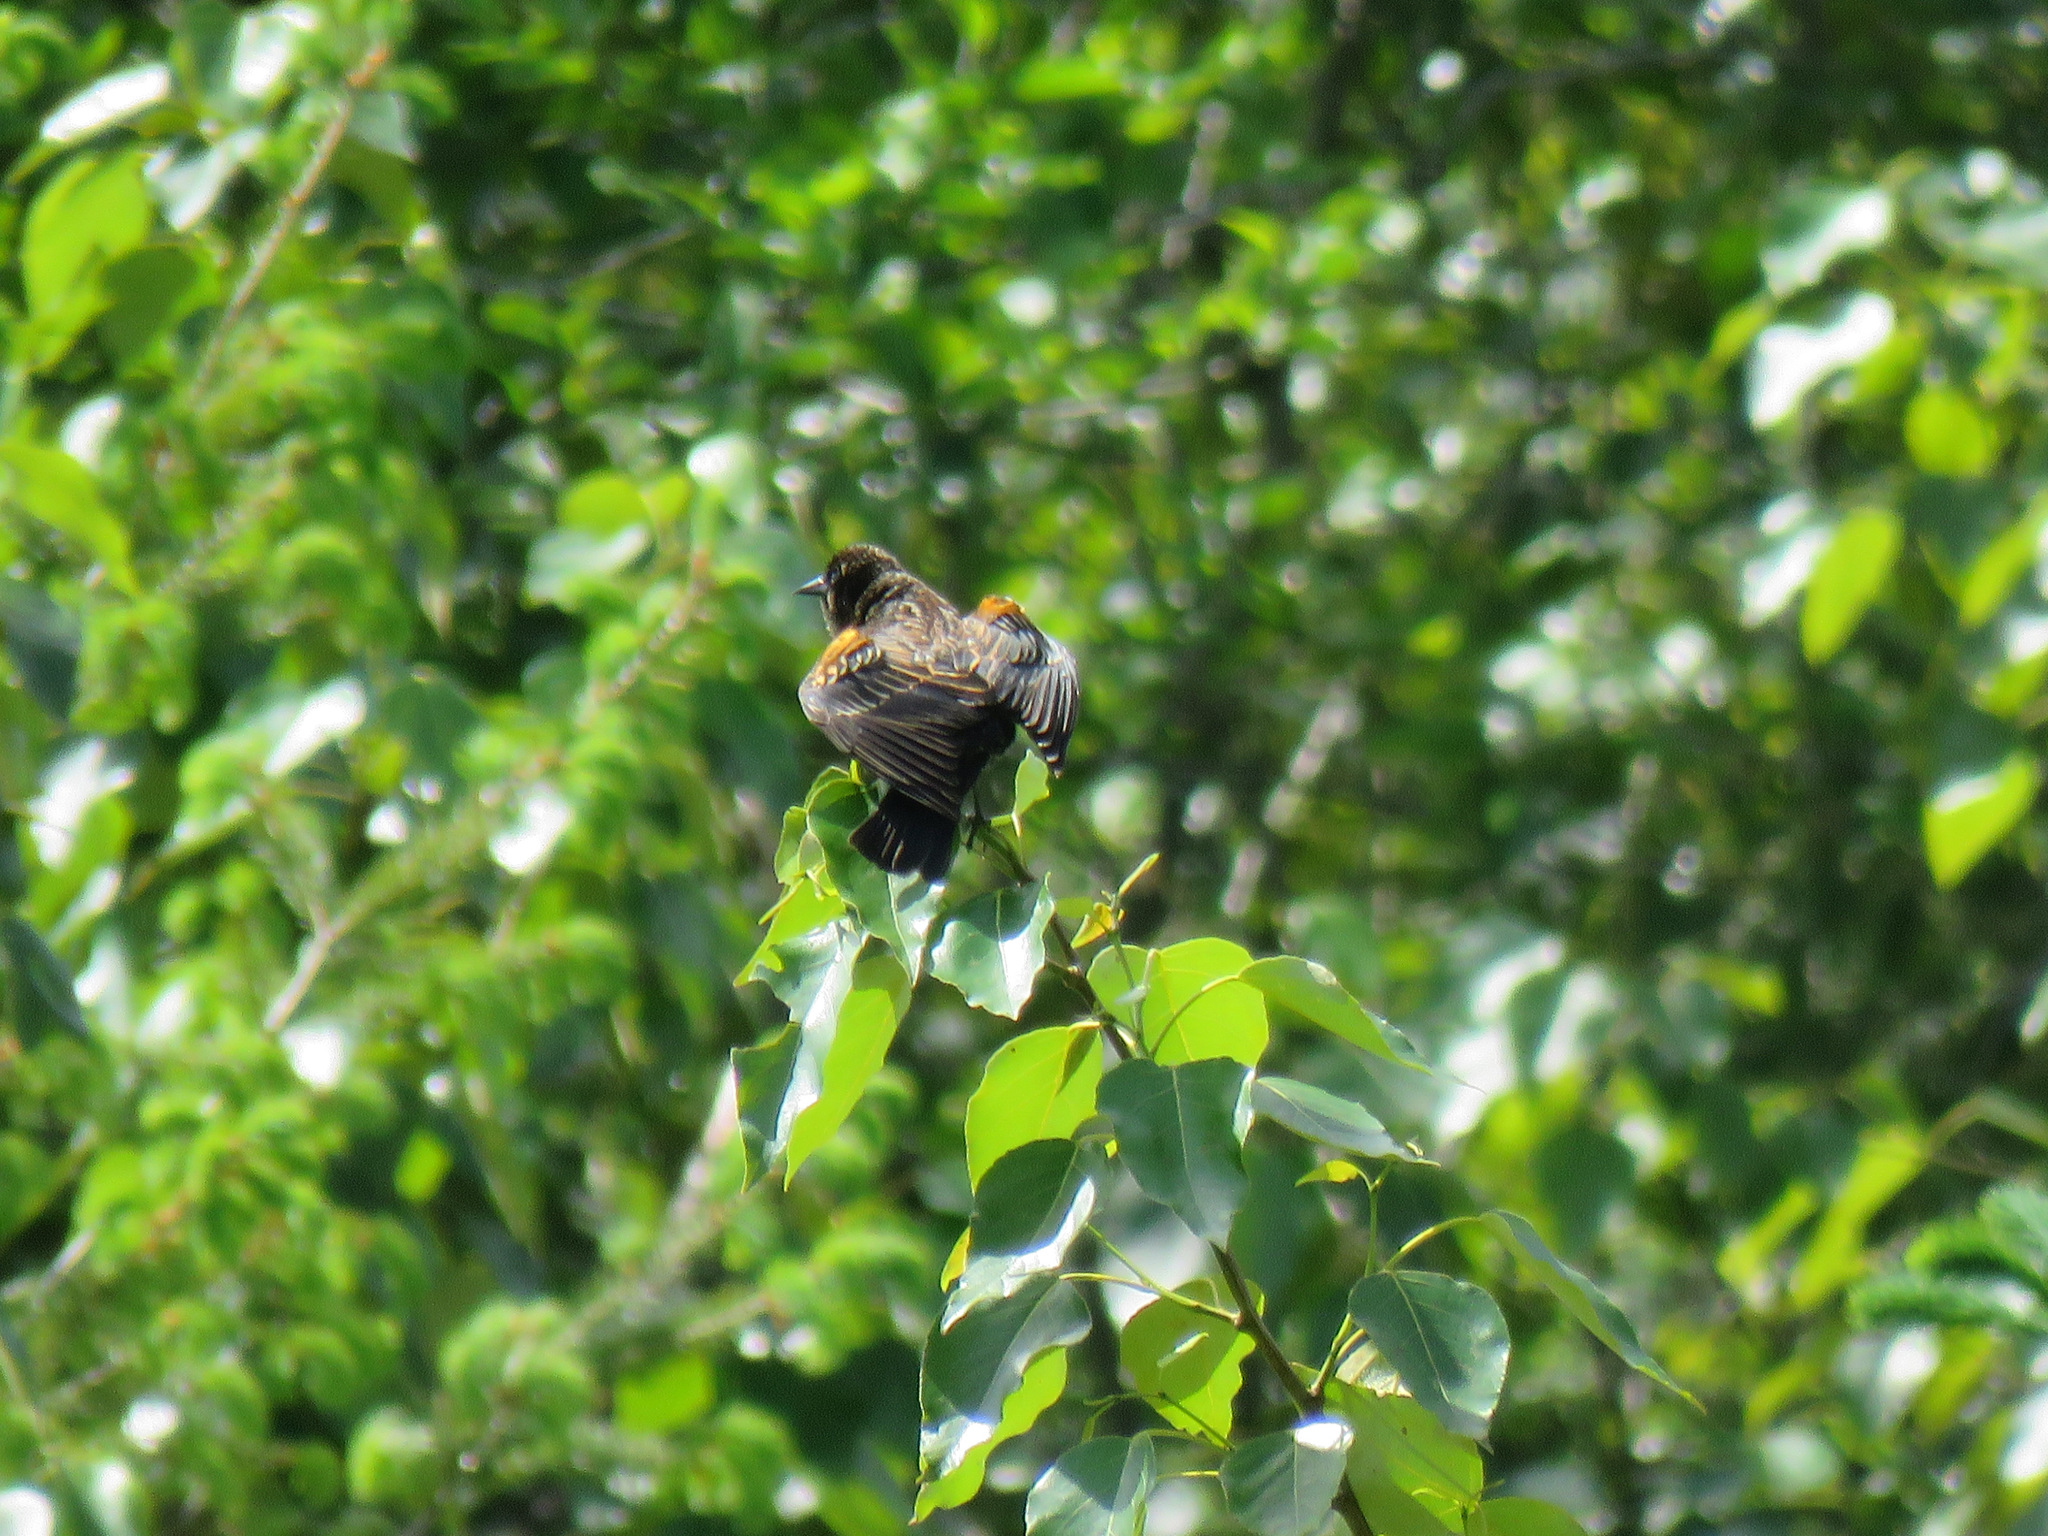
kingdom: Animalia
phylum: Chordata
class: Aves
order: Passeriformes
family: Icteridae
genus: Agelaius
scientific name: Agelaius phoeniceus
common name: Red-winged blackbird
